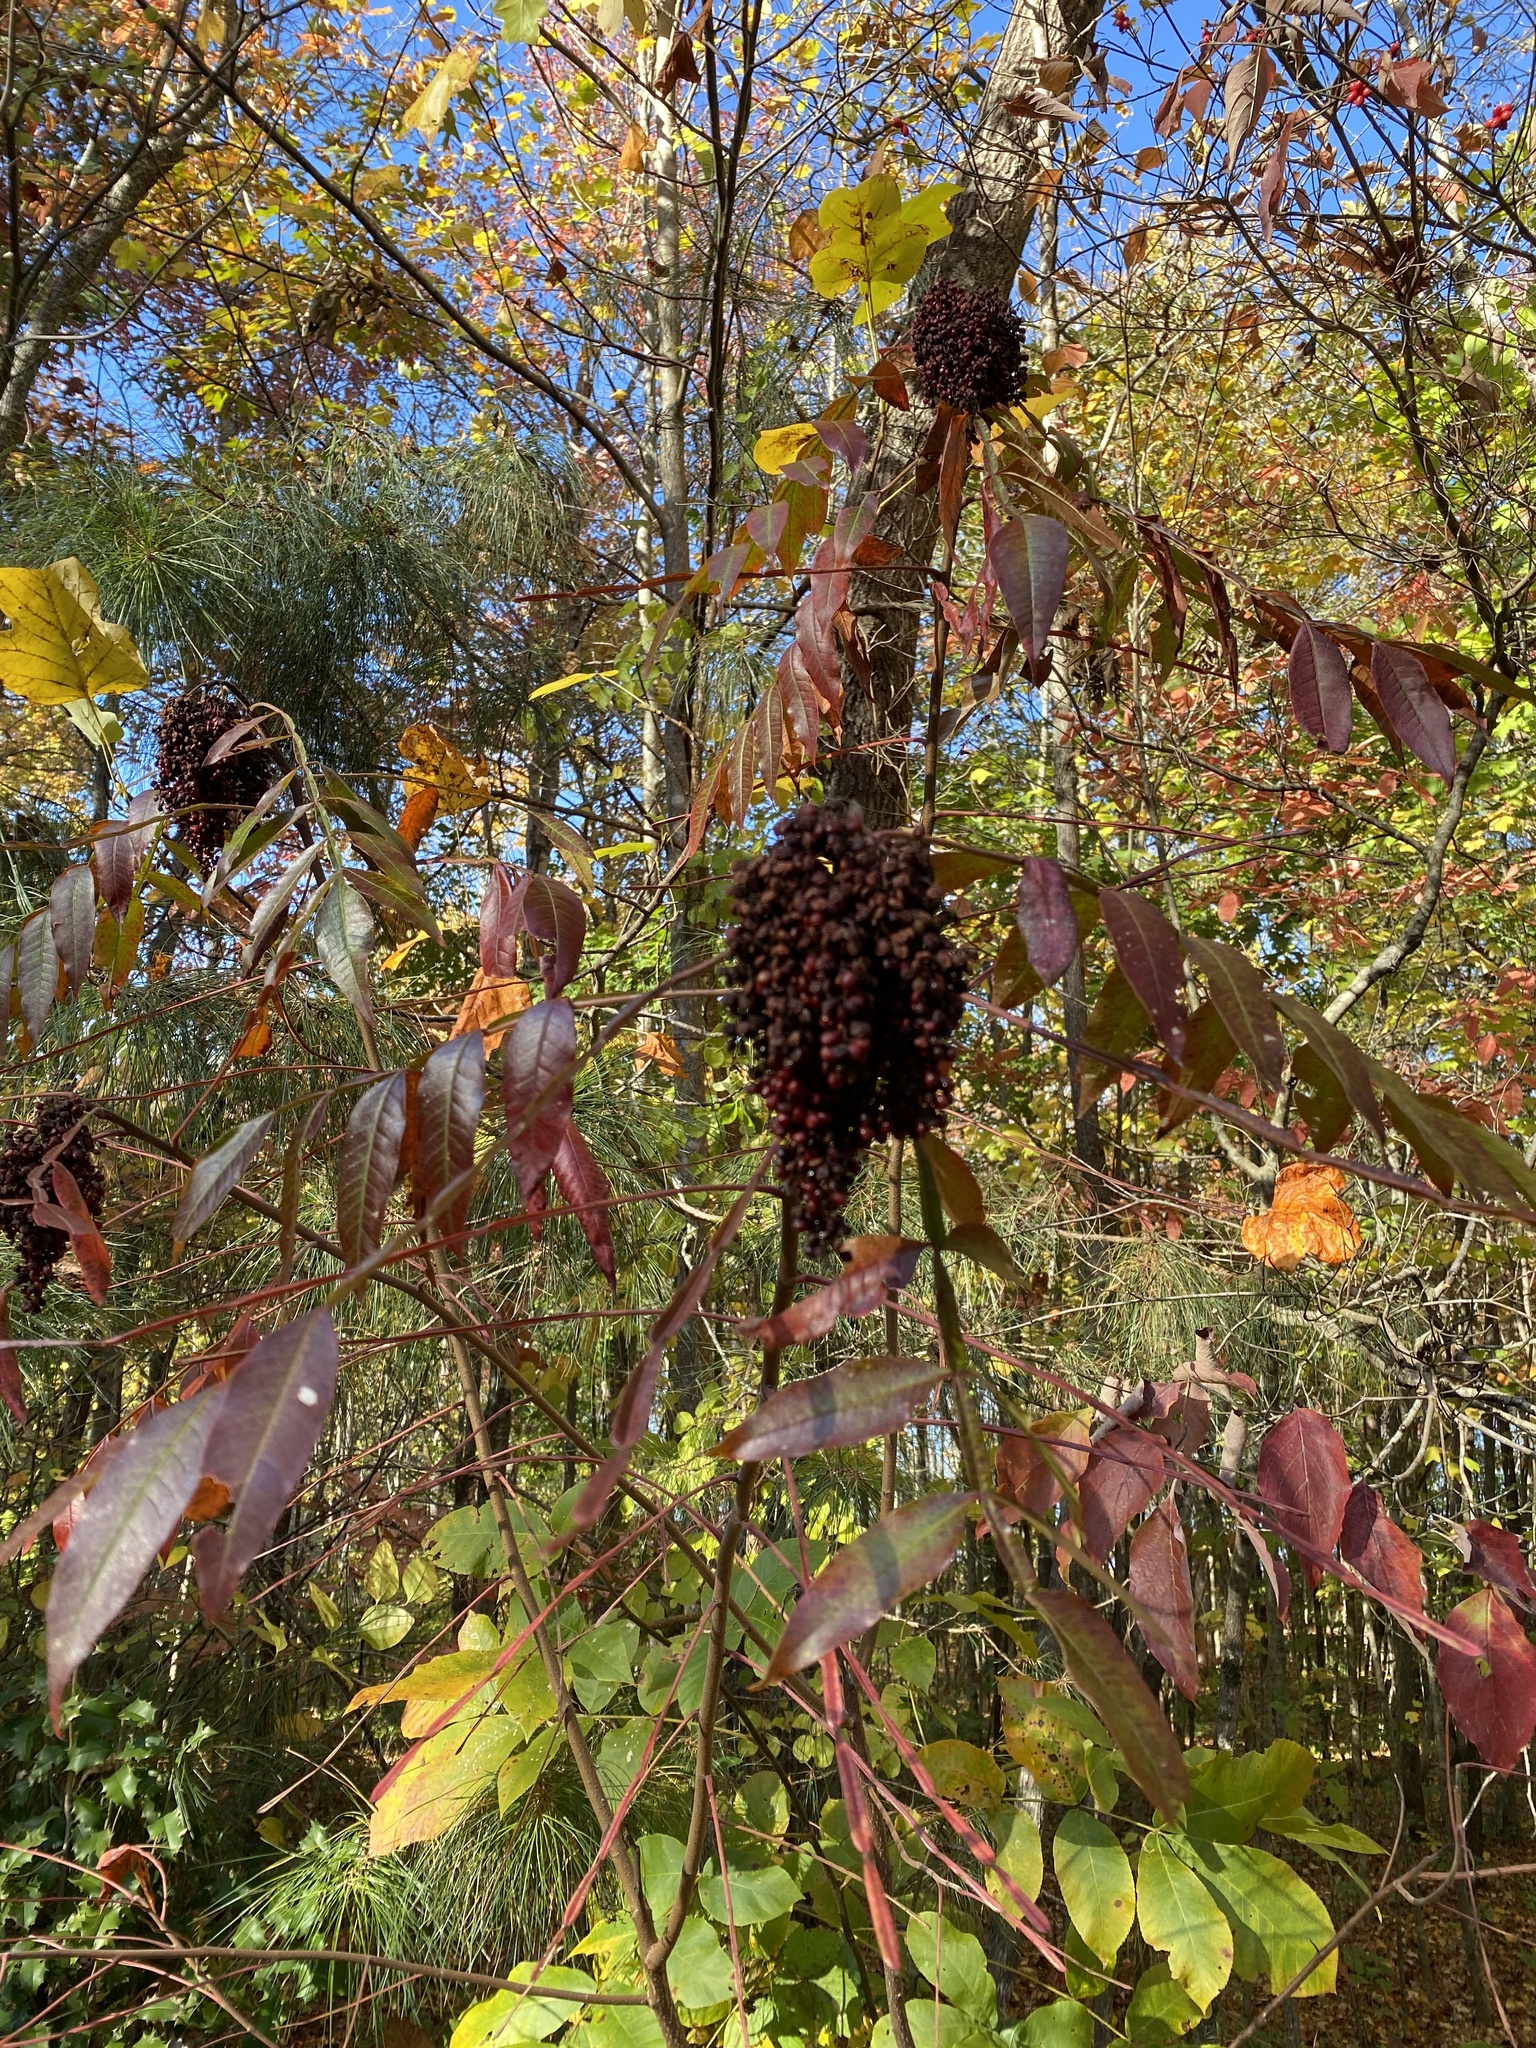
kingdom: Plantae
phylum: Tracheophyta
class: Magnoliopsida
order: Sapindales
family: Anacardiaceae
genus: Rhus
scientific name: Rhus copallina
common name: Shining sumac
